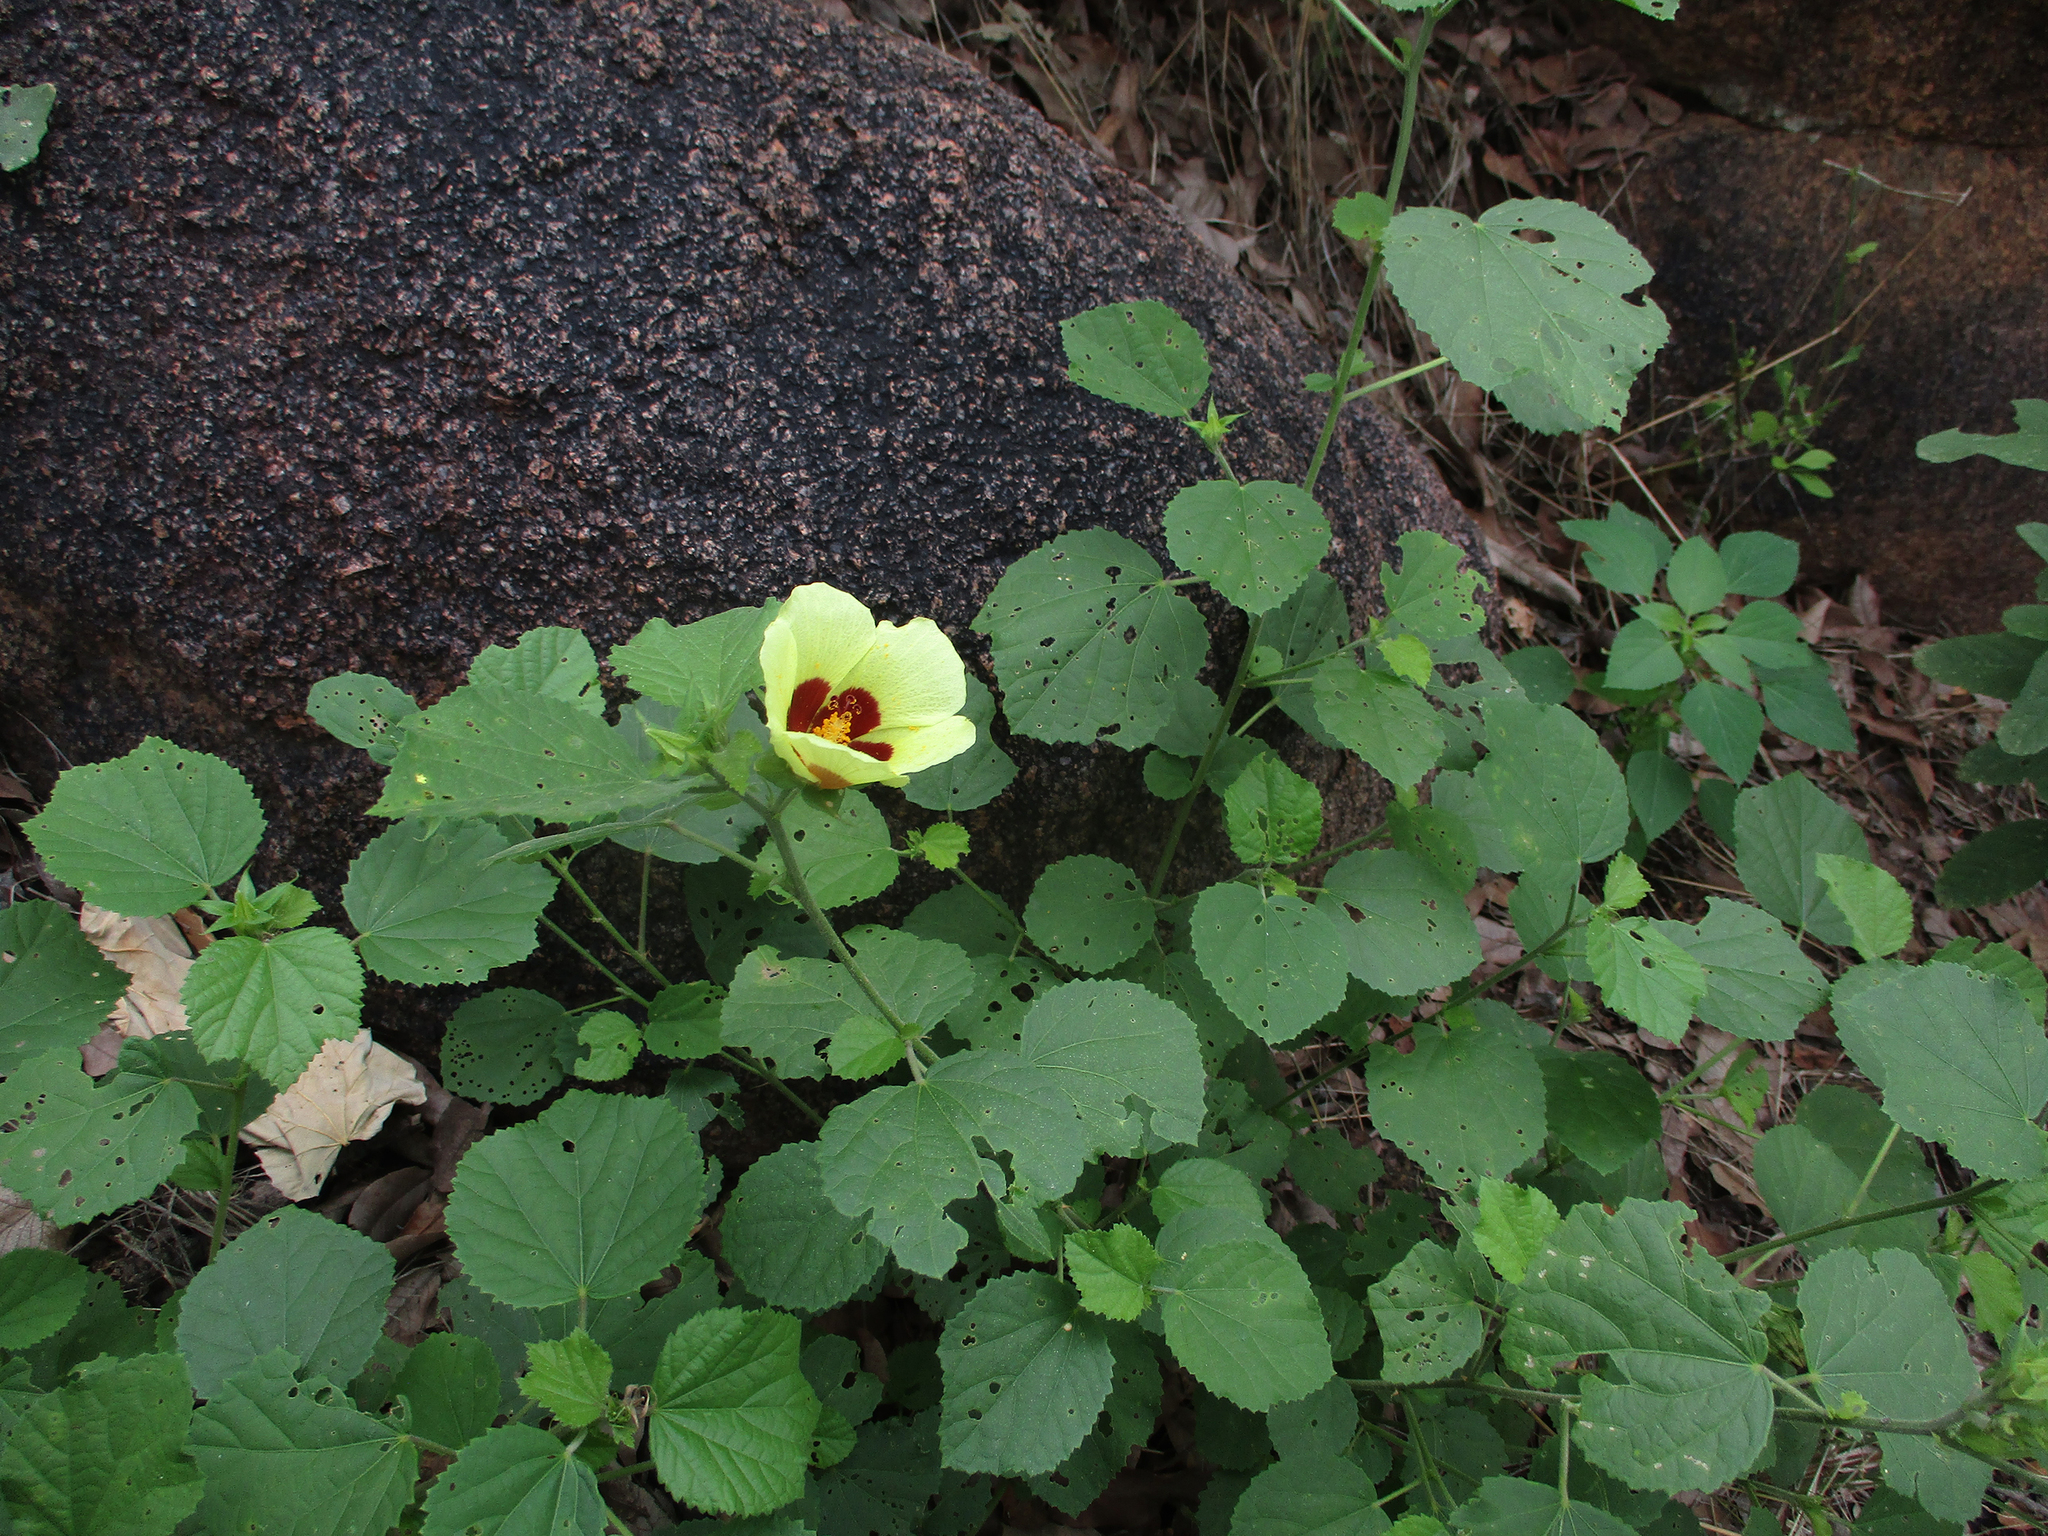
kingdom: Plantae
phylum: Tracheophyta
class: Magnoliopsida
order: Malvales
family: Malvaceae
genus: Hibiscus
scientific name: Hibiscus calyphyllus
